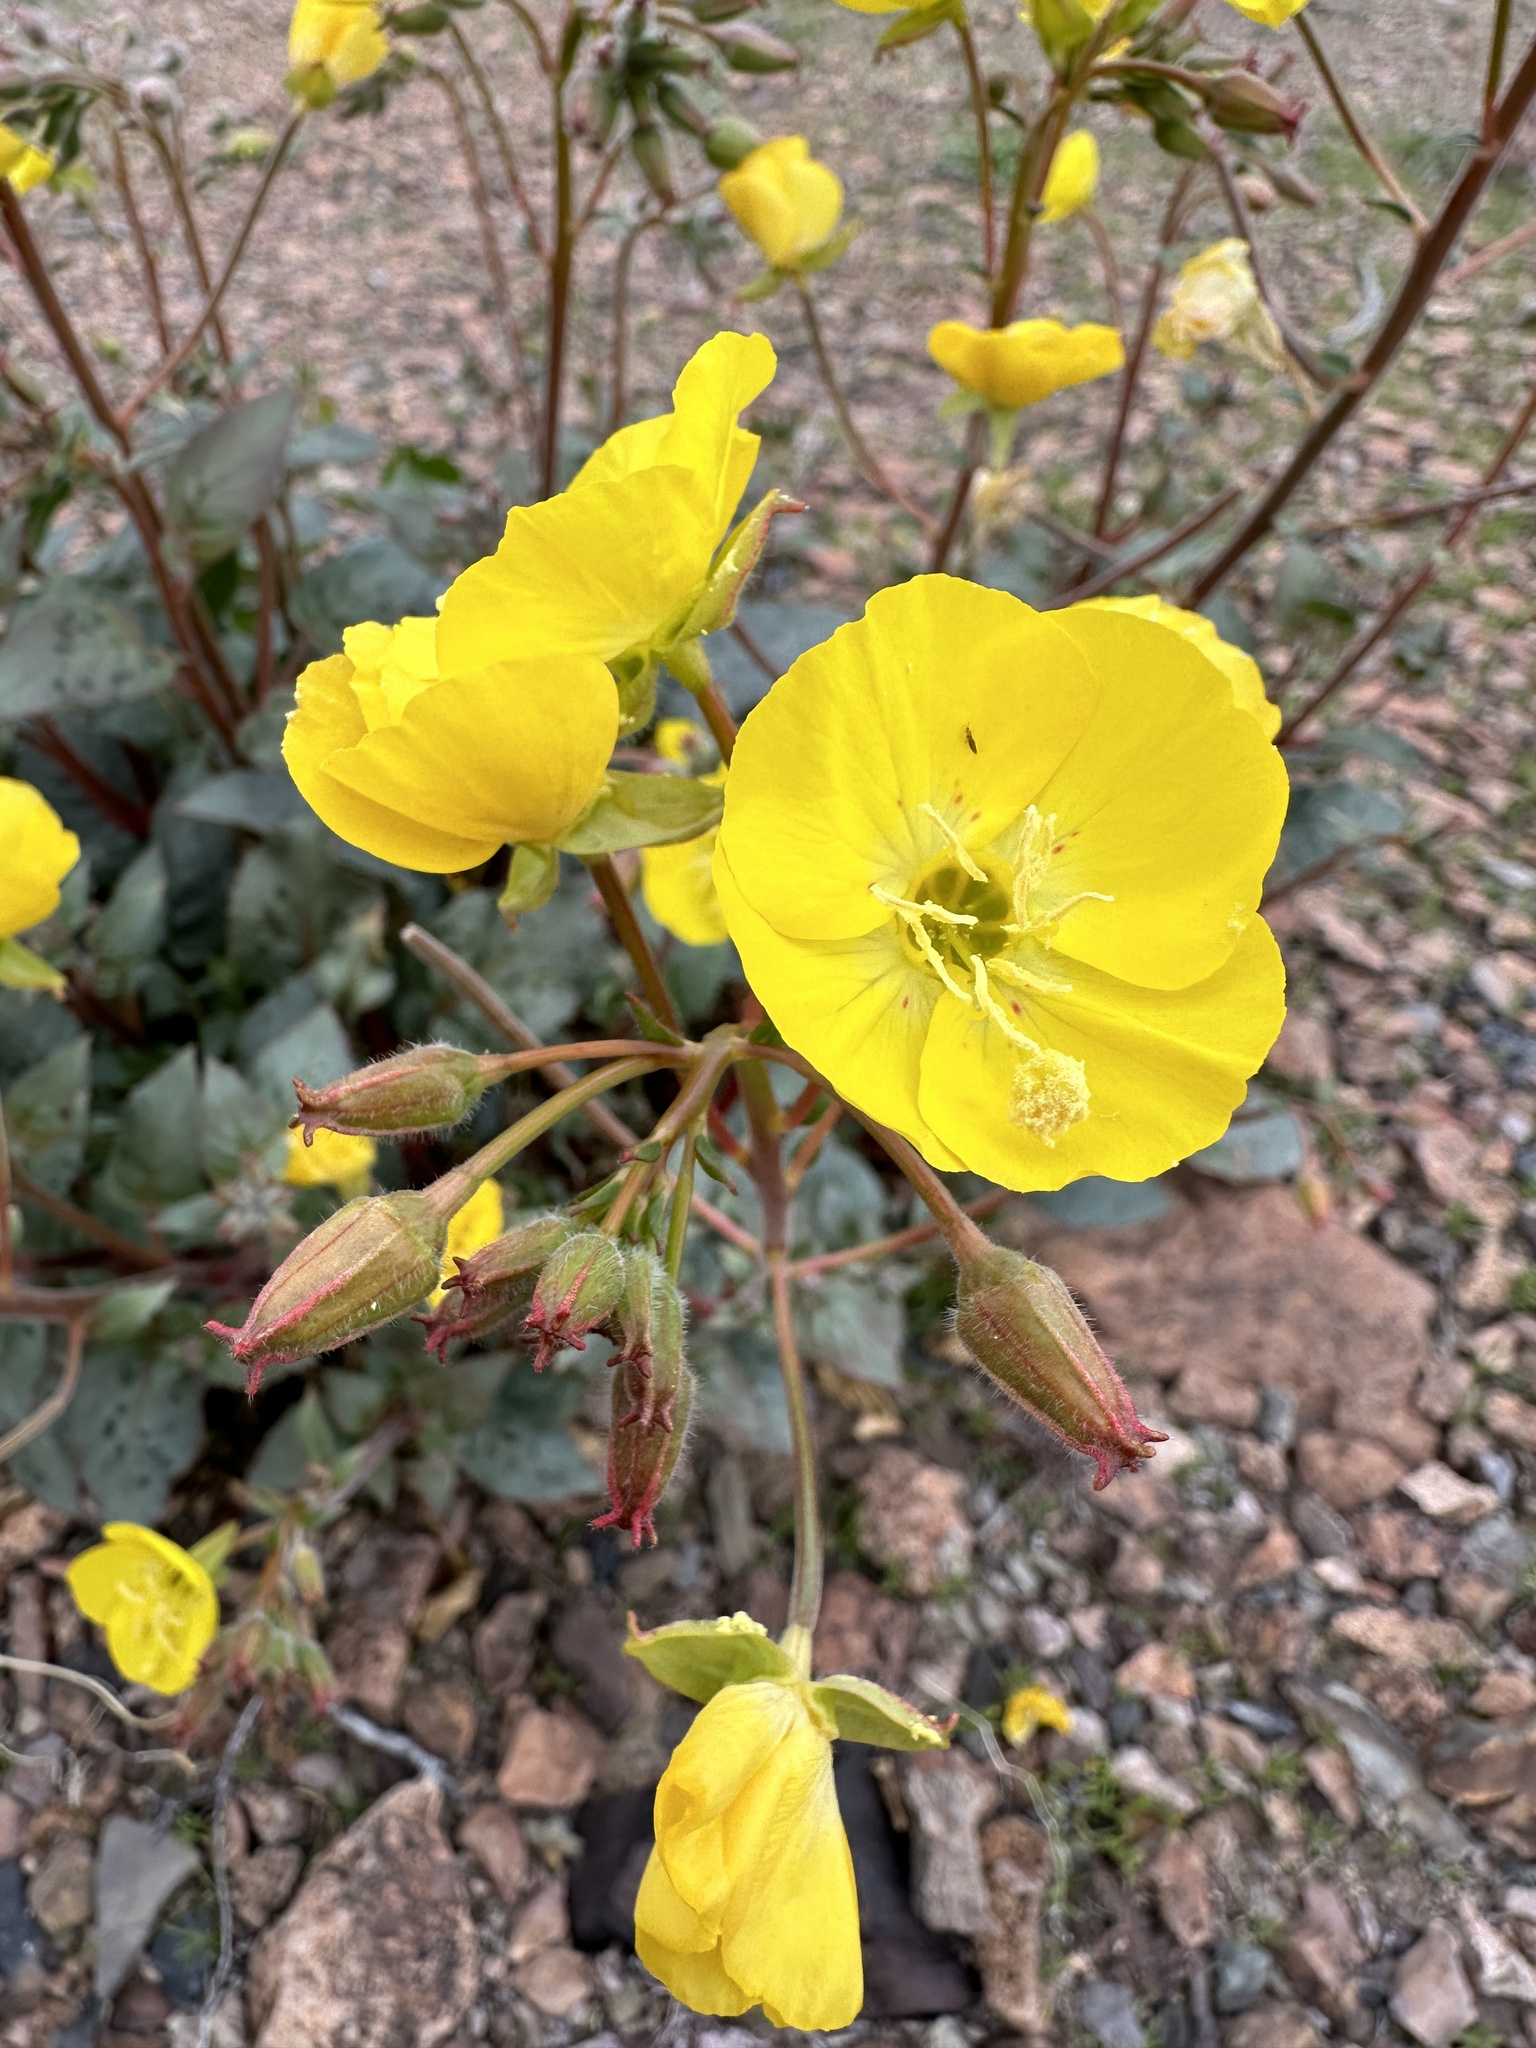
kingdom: Plantae
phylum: Tracheophyta
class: Magnoliopsida
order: Myrtales
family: Onagraceae
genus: Chylismia
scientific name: Chylismia brevipes
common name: Yellow cups
